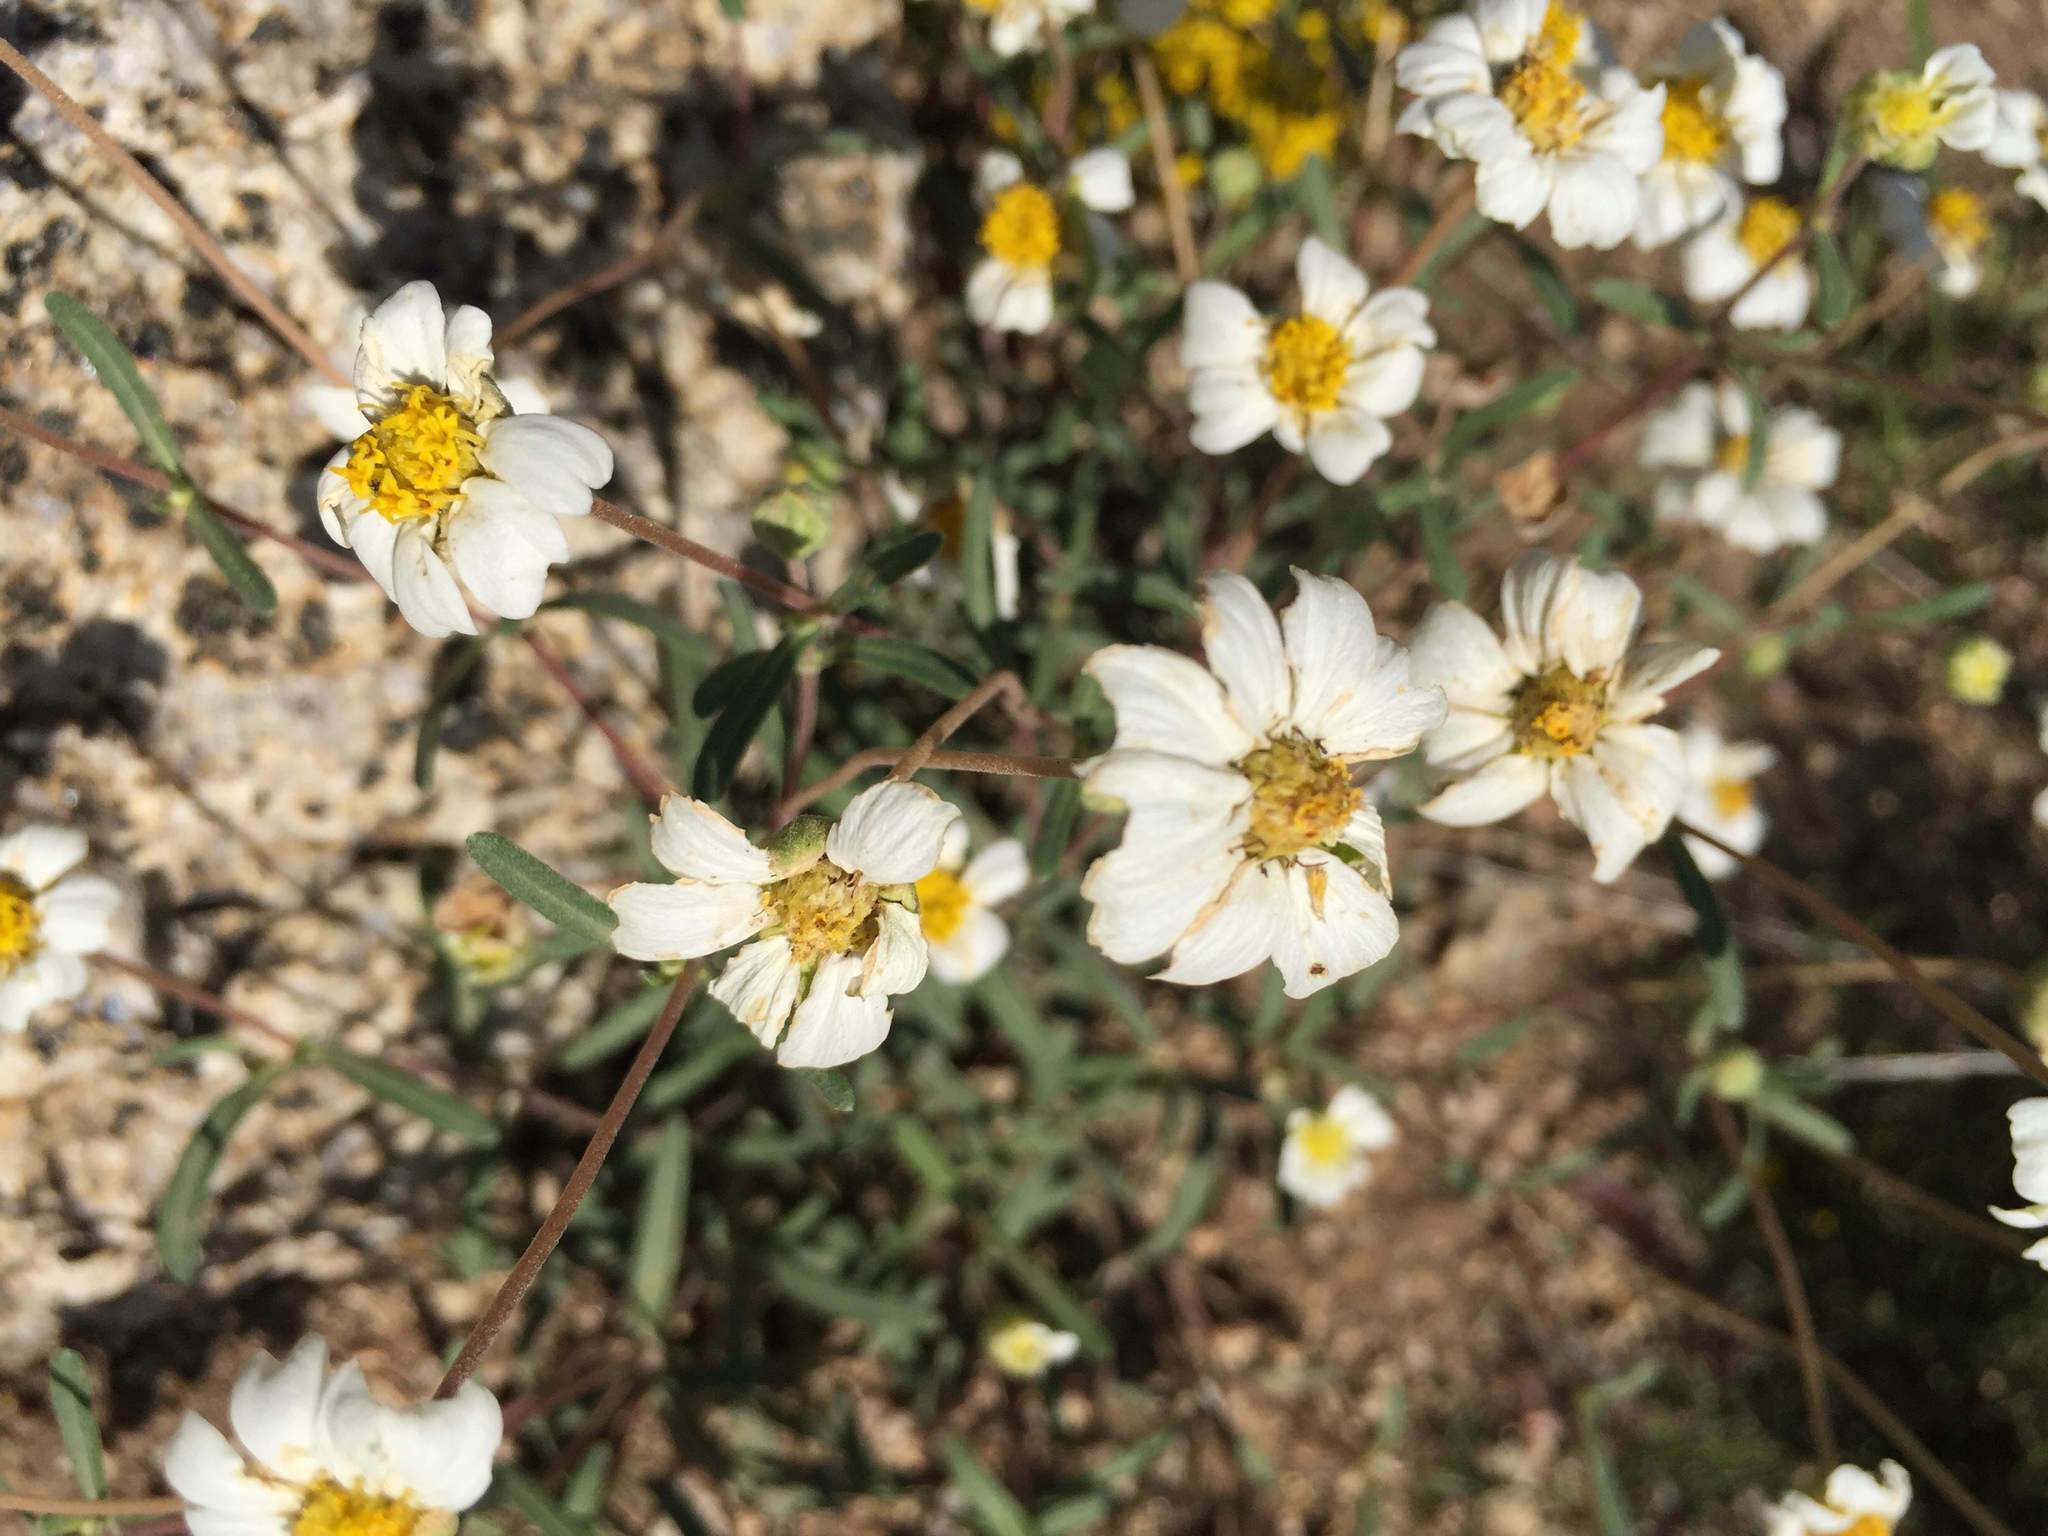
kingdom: Plantae
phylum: Tracheophyta
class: Magnoliopsida
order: Asterales
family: Asteraceae
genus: Melampodium
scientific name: Melampodium leucanthum
